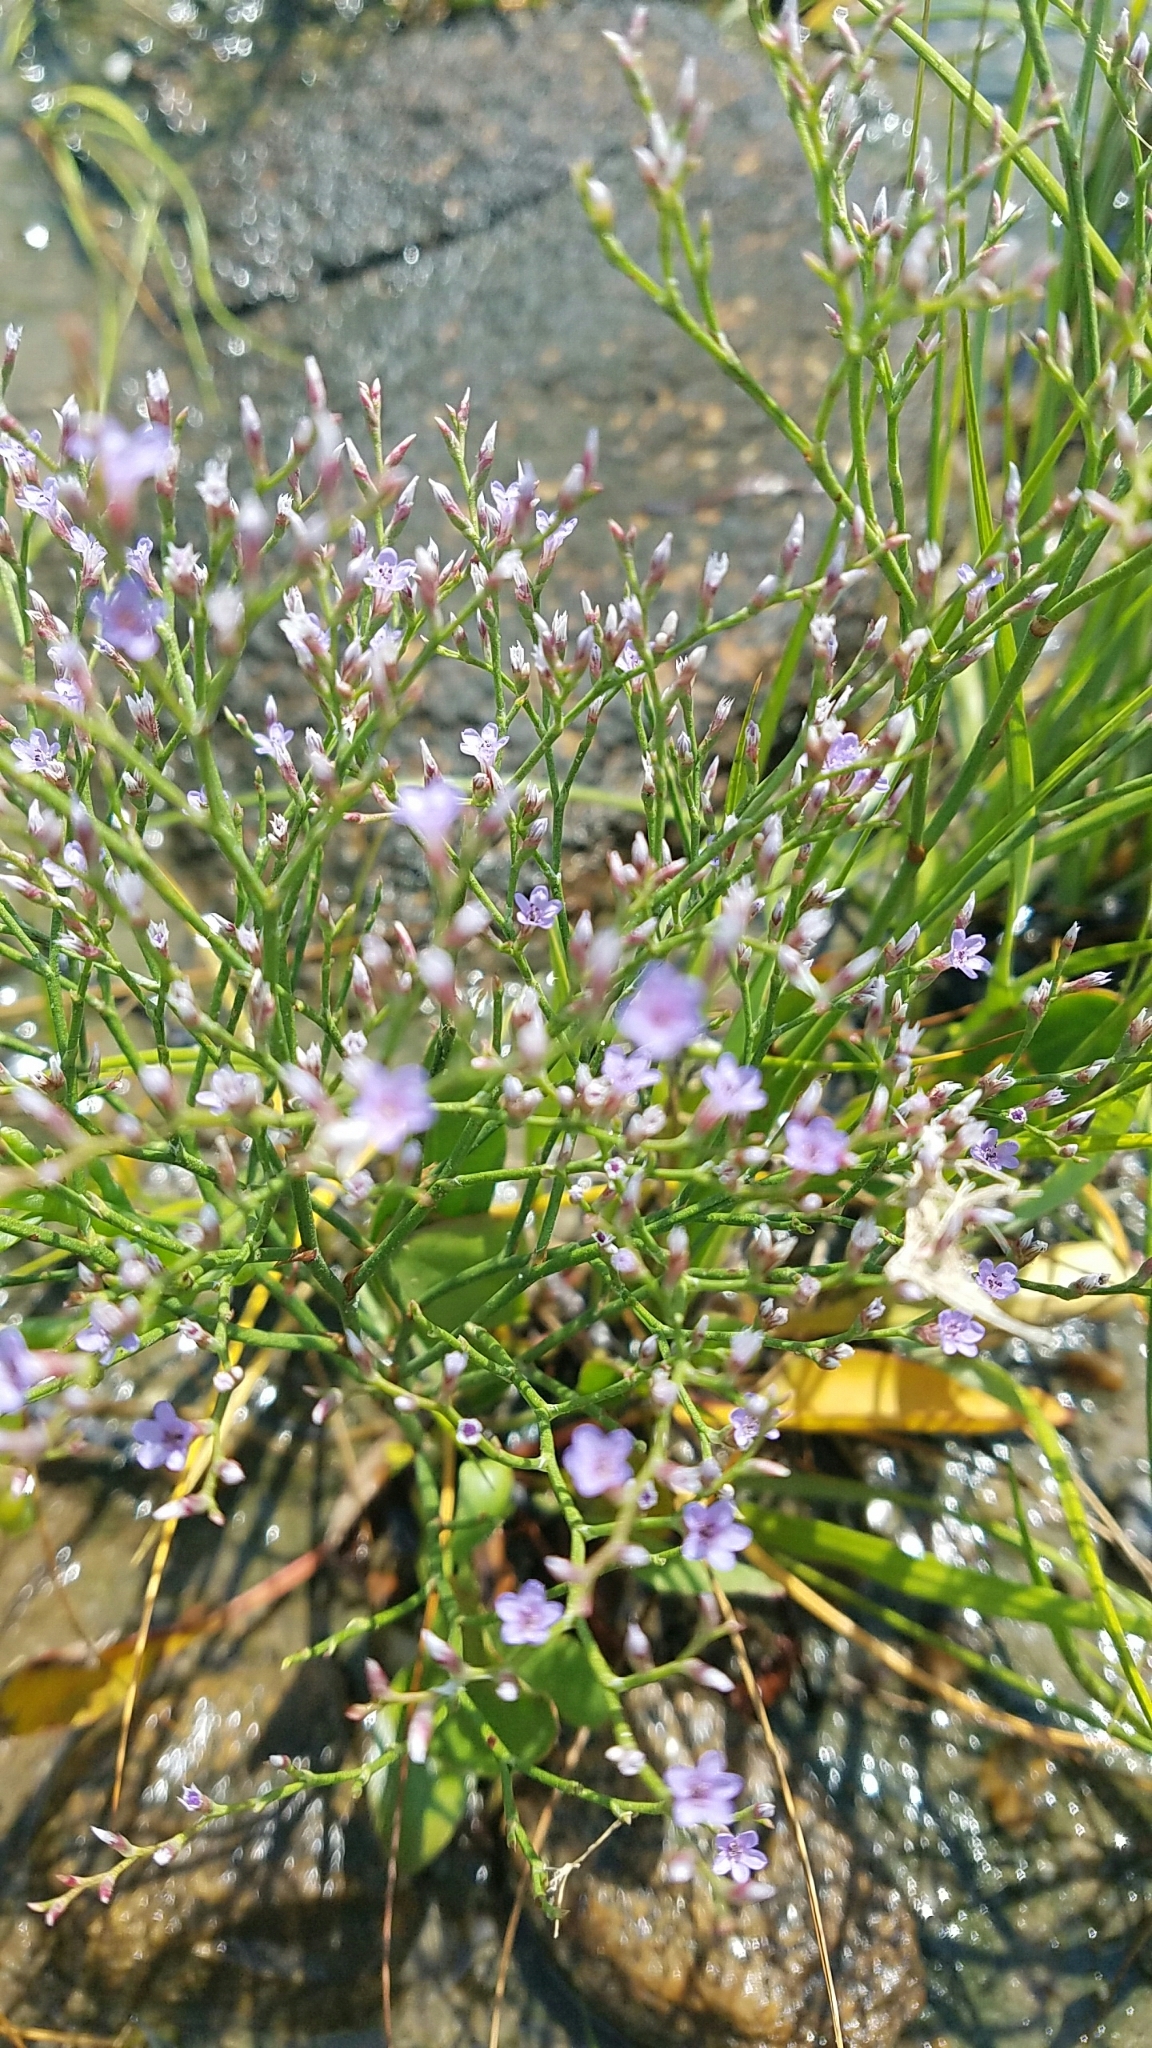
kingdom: Plantae
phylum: Tracheophyta
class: Magnoliopsida
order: Caryophyllales
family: Plumbaginaceae
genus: Limonium
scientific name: Limonium carolinianum
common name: Carolina sea lavender
